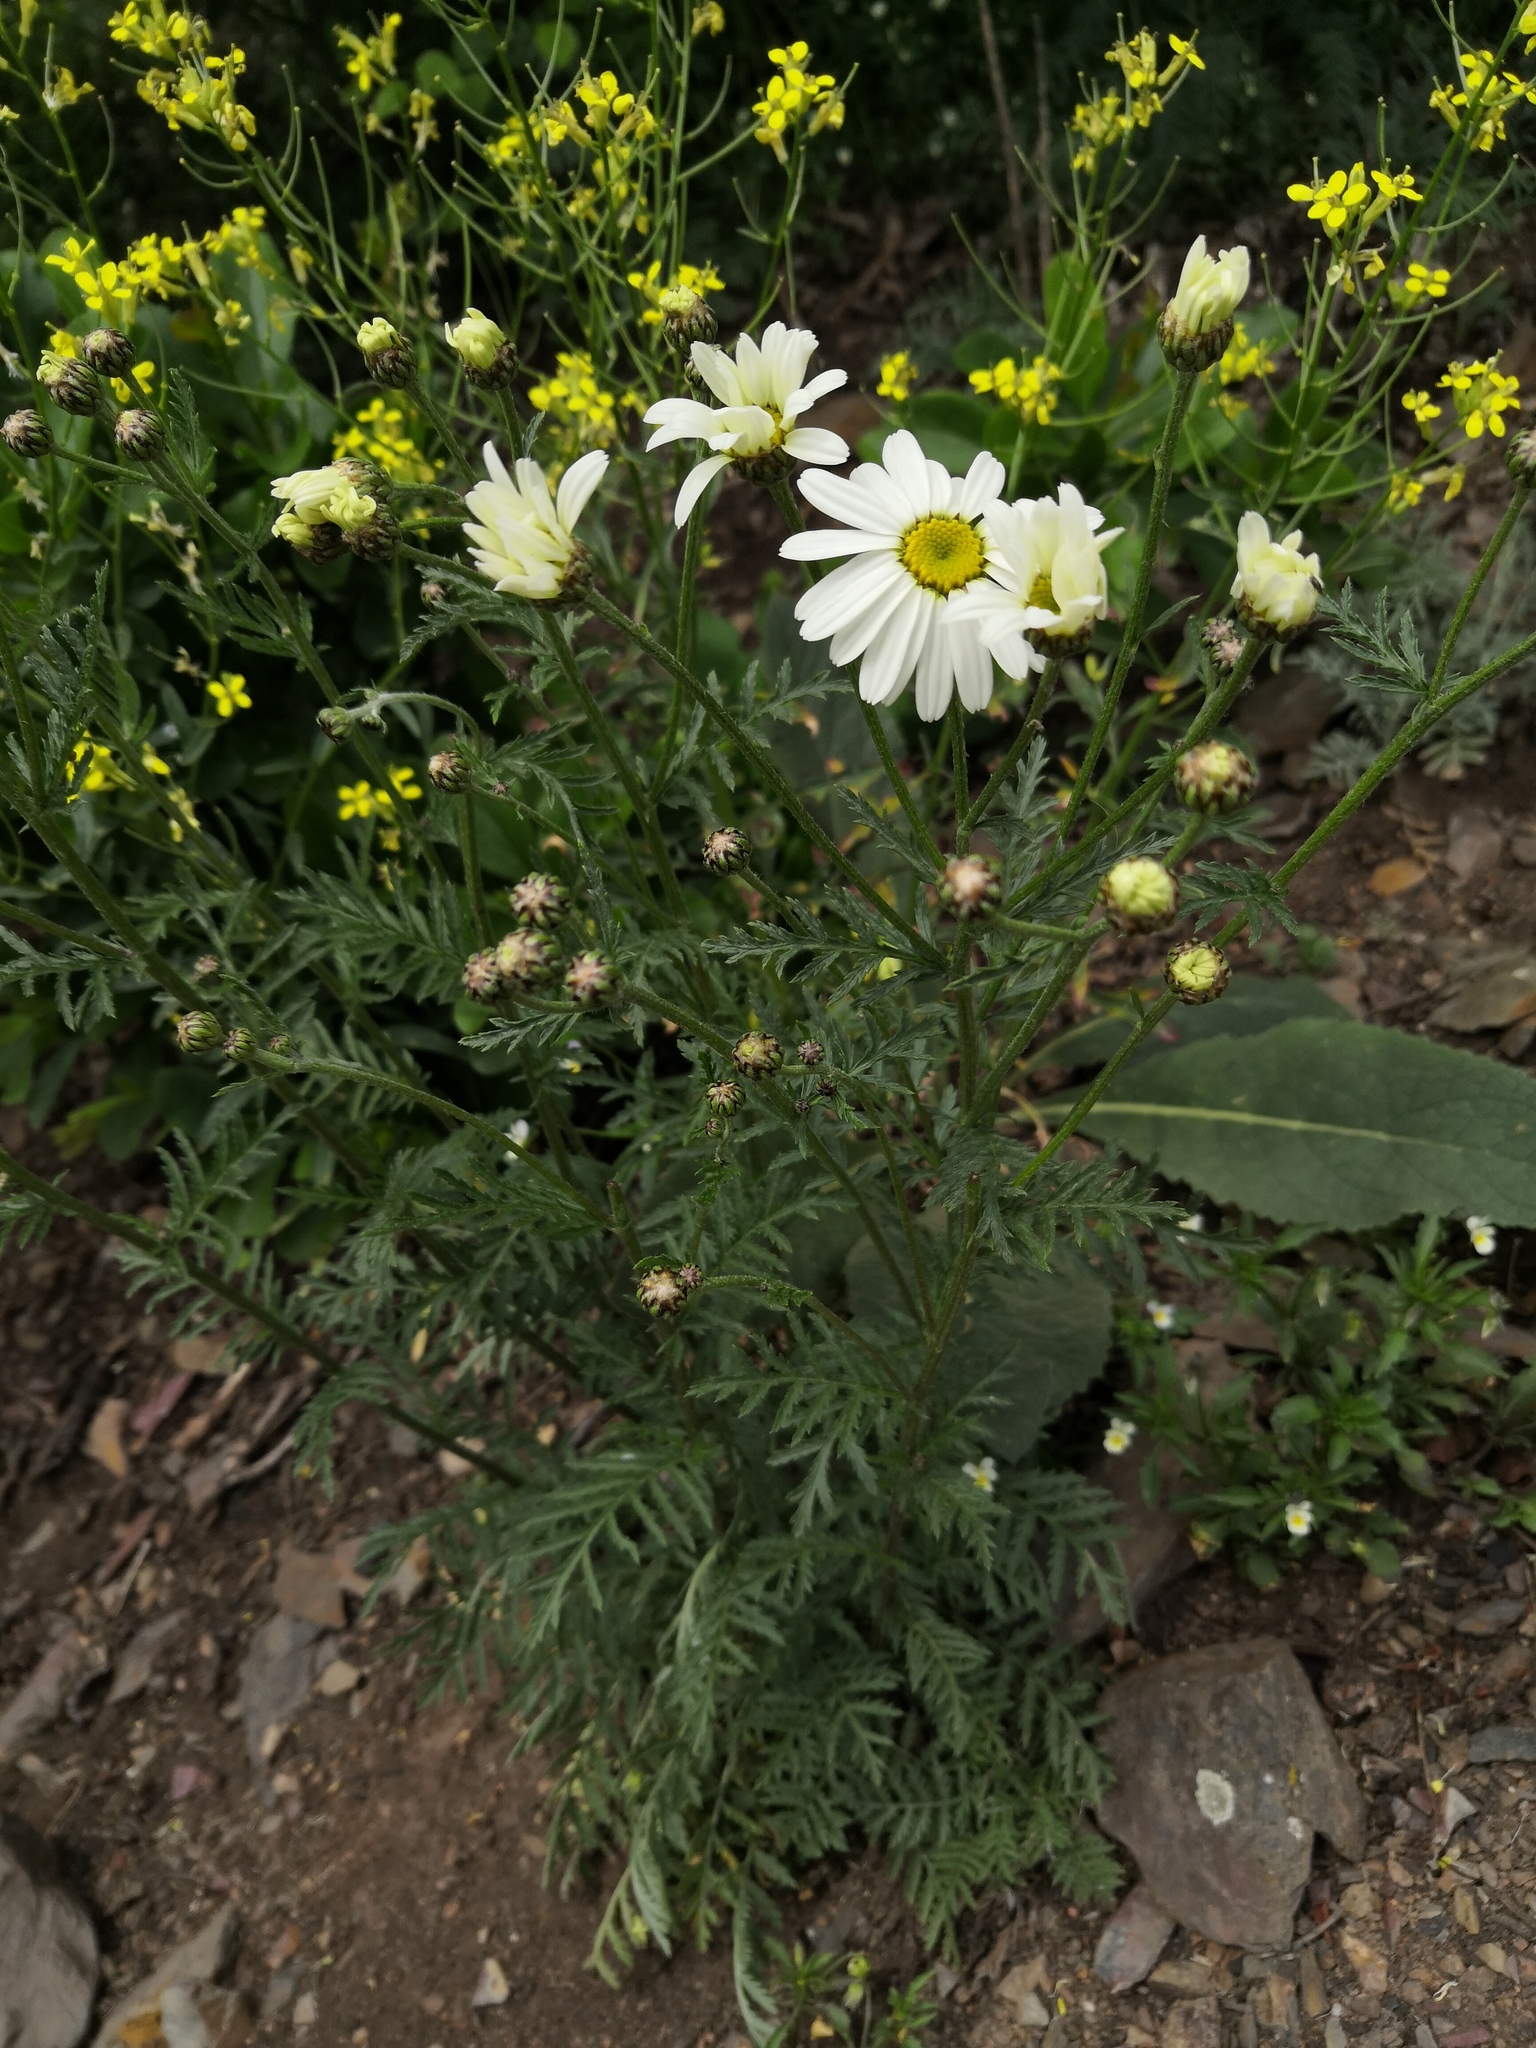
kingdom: Plantae
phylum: Tracheophyta
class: Magnoliopsida
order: Asterales
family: Asteraceae
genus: Tanacetum
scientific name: Tanacetum corymbosum
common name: Scentless feverfew
